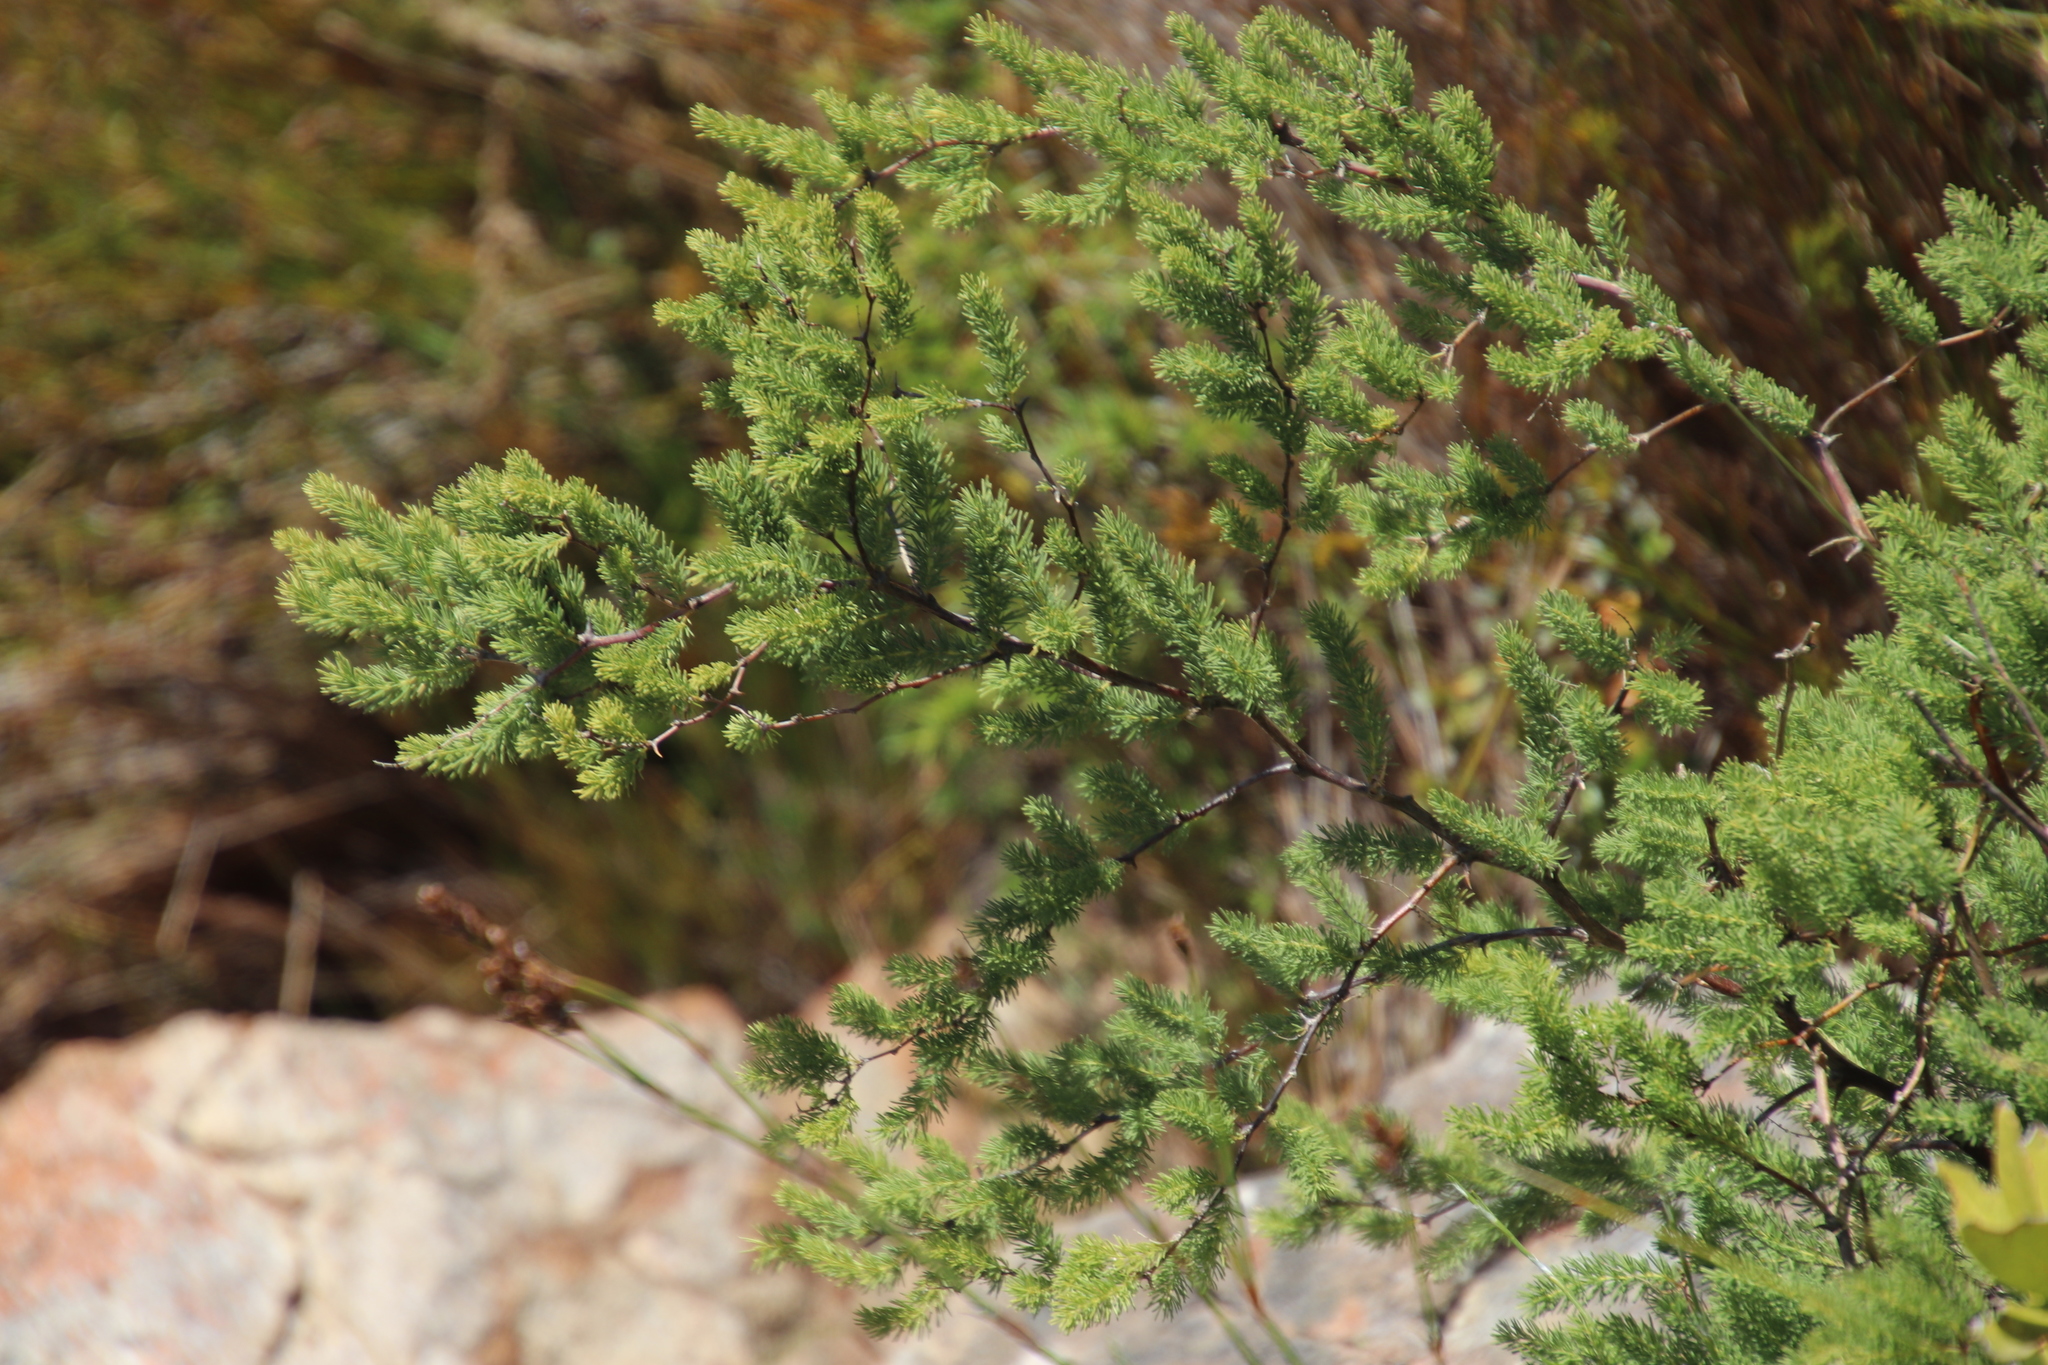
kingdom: Plantae
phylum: Tracheophyta
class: Liliopsida
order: Asparagales
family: Asparagaceae
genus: Asparagus
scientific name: Asparagus rubicundus
